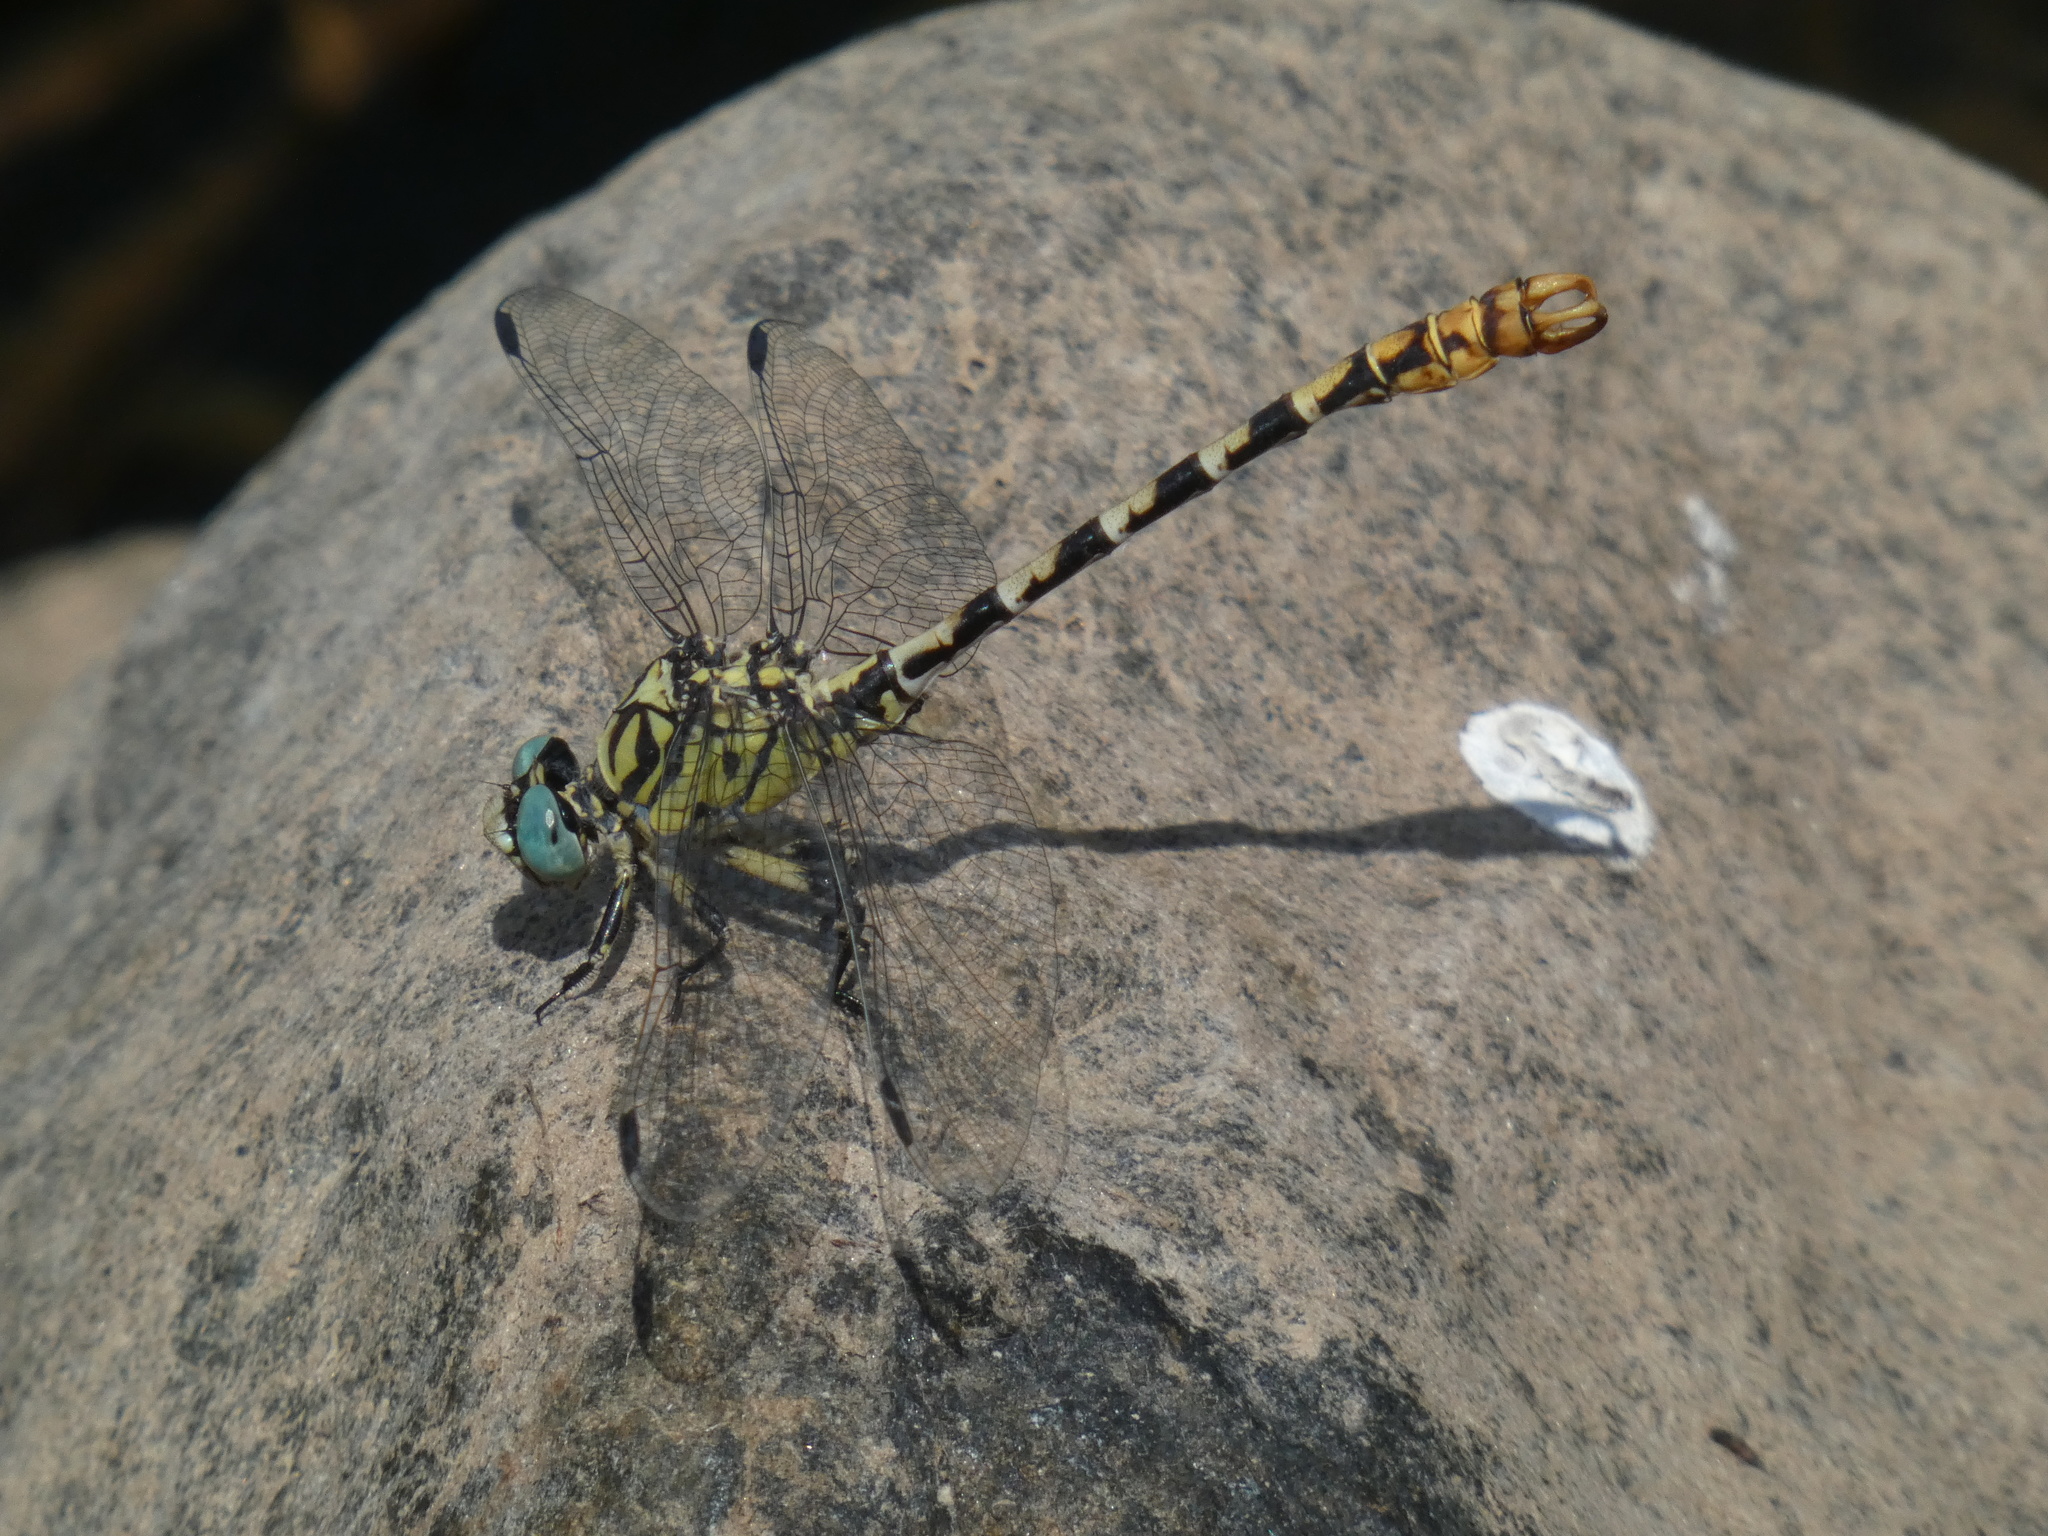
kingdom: Animalia
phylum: Arthropoda
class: Insecta
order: Odonata
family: Gomphidae
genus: Onychogomphus
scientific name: Onychogomphus forcipatus
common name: Small pincertail
